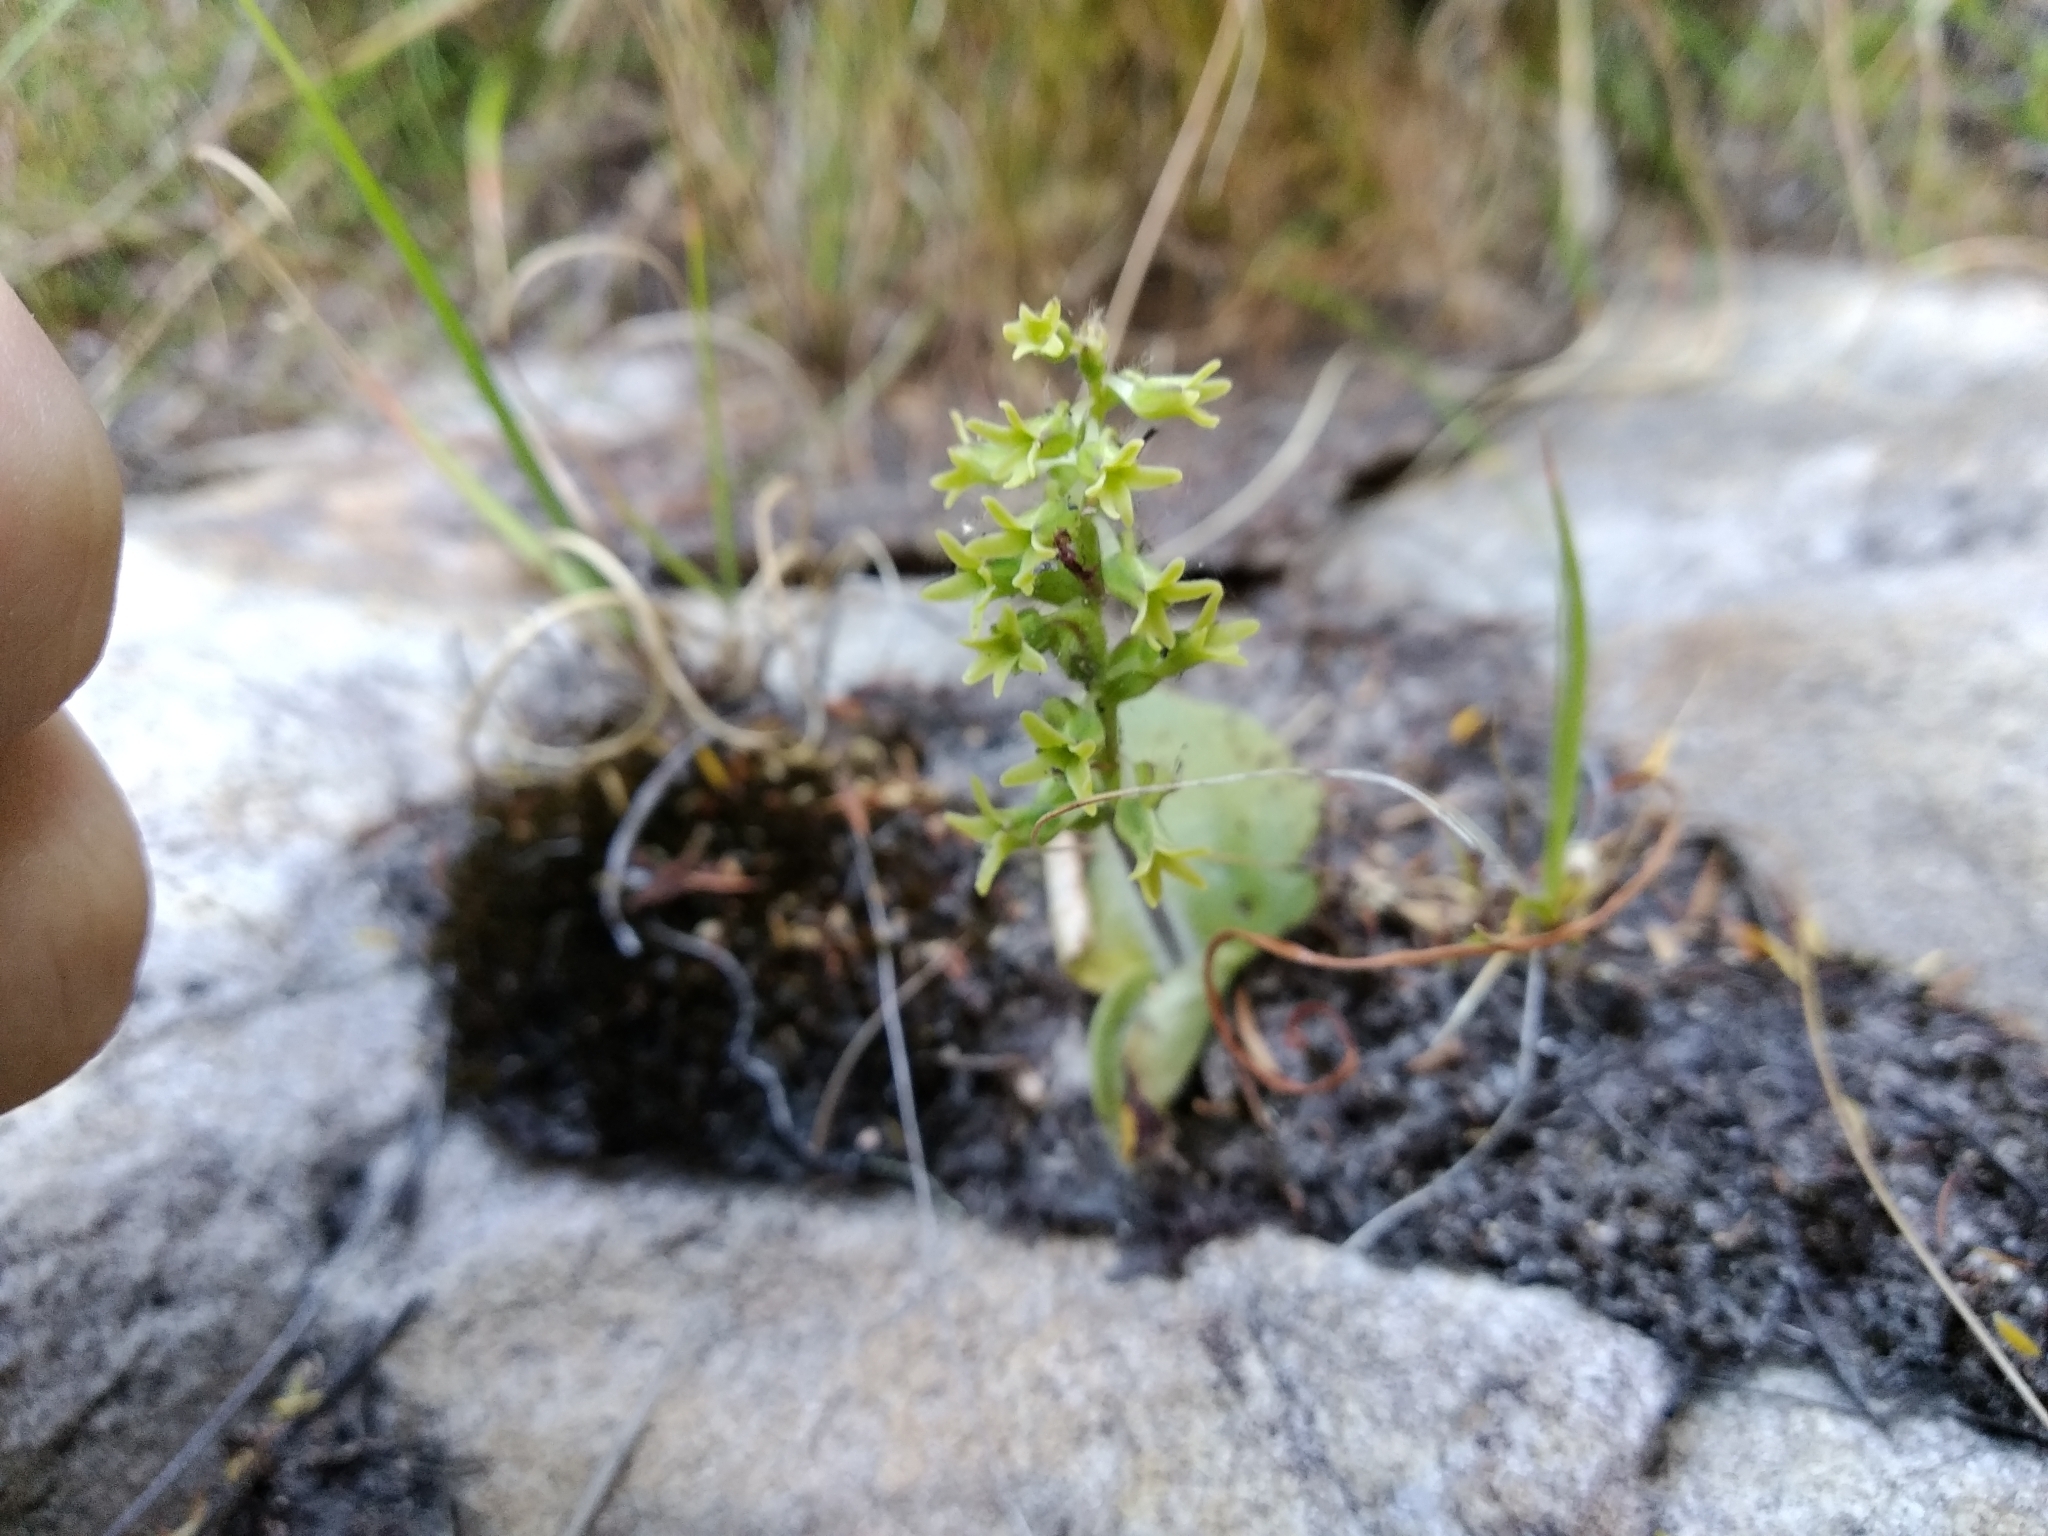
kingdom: Plantae
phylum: Tracheophyta
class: Liliopsida
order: Asparagales
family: Orchidaceae
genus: Holothrix
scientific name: Holothrix condensata
